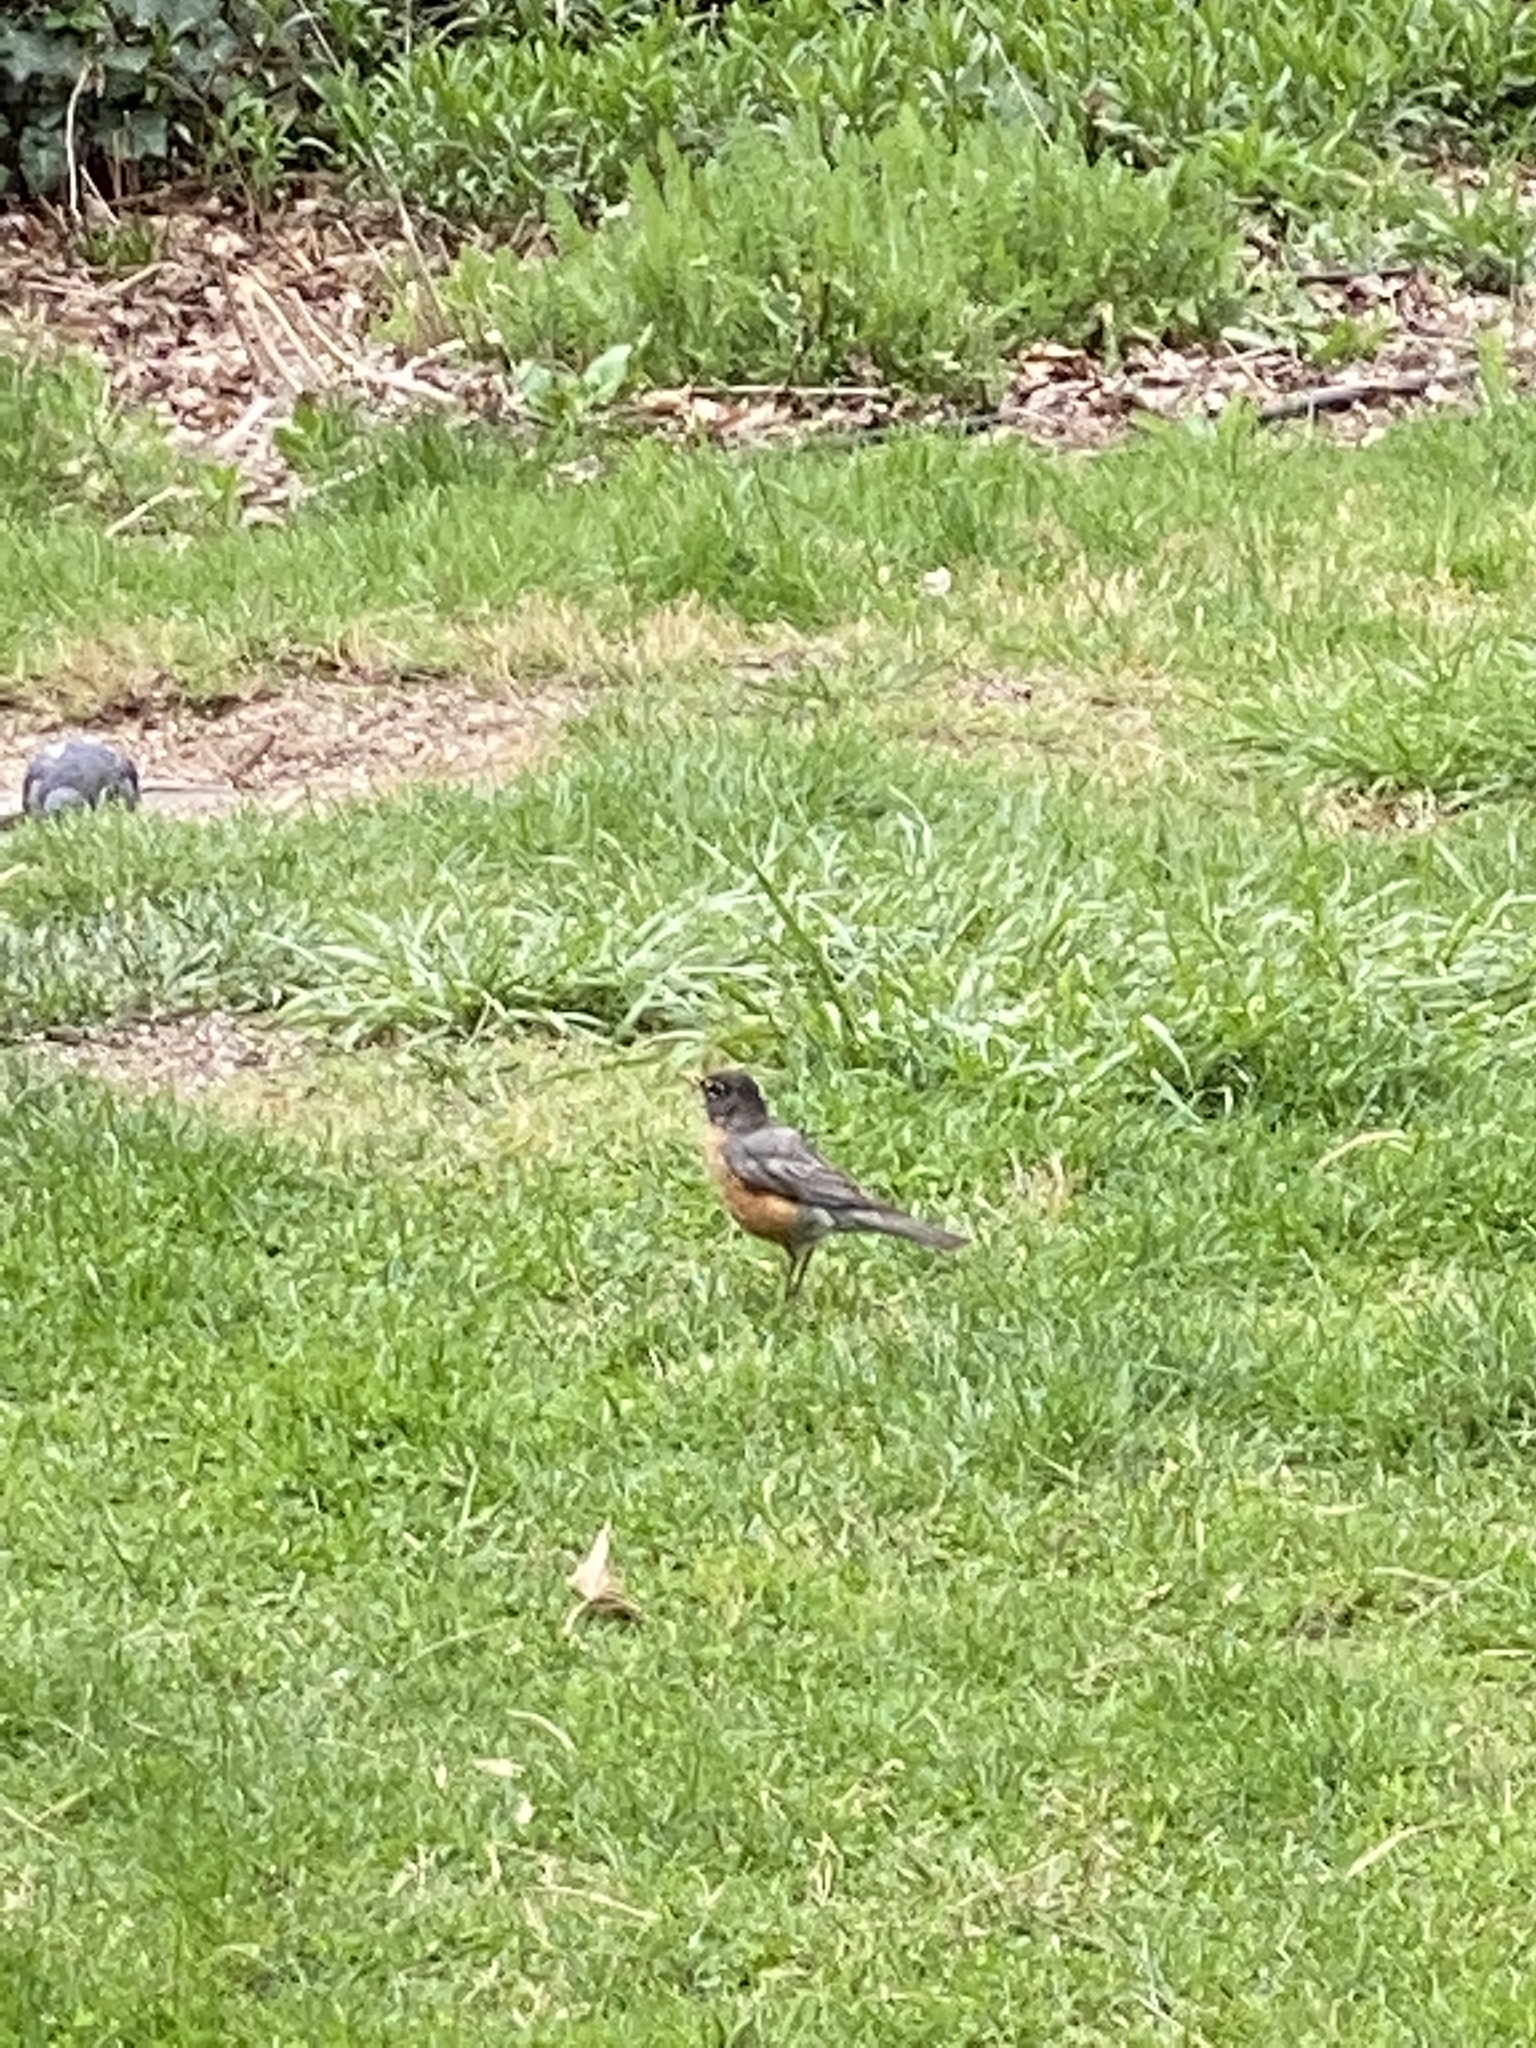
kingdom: Animalia
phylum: Chordata
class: Aves
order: Passeriformes
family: Turdidae
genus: Turdus
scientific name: Turdus migratorius
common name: American robin
